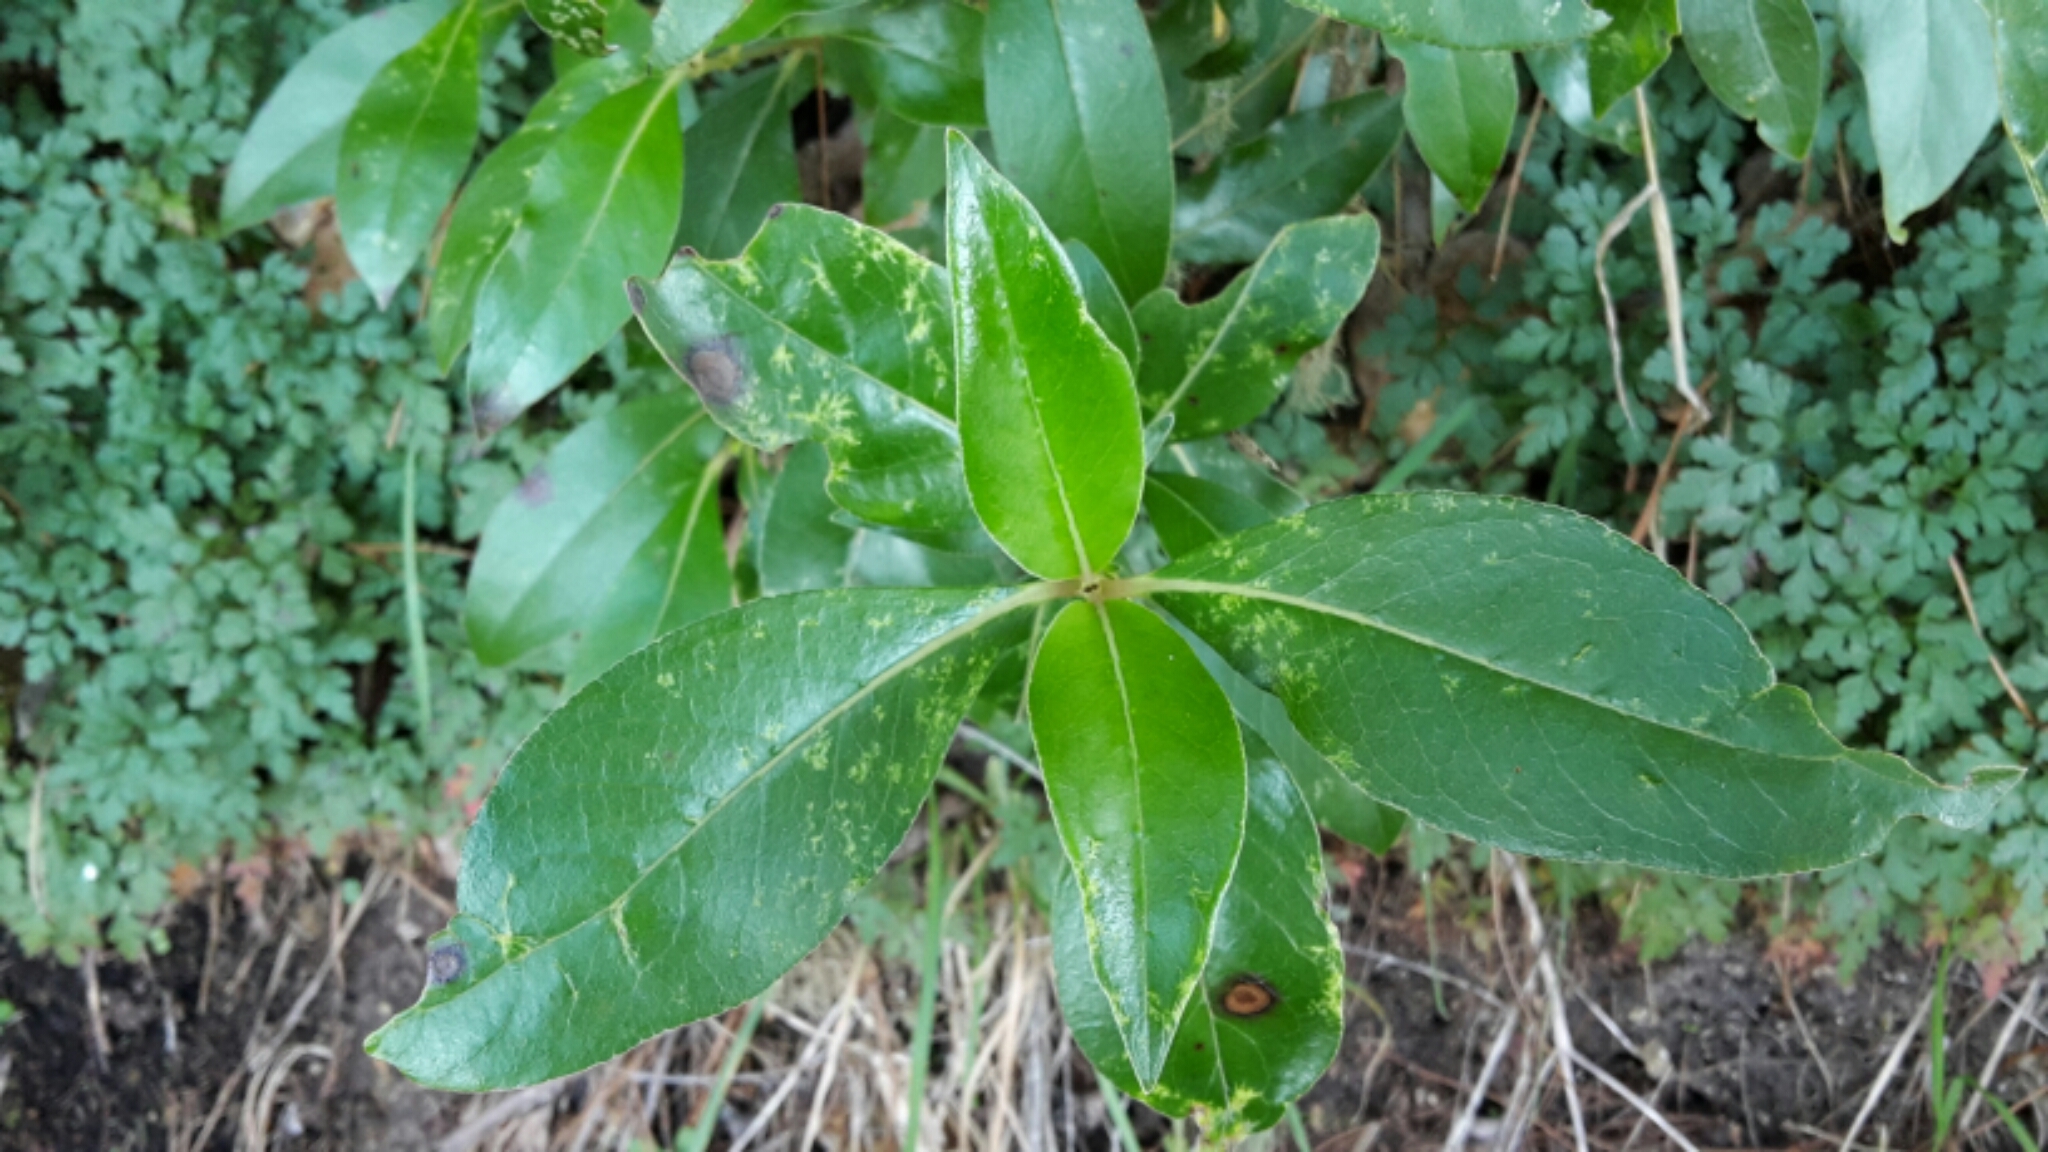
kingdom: Plantae
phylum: Tracheophyta
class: Magnoliopsida
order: Gentianales
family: Rubiaceae
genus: Coprosma
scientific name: Coprosma robusta
